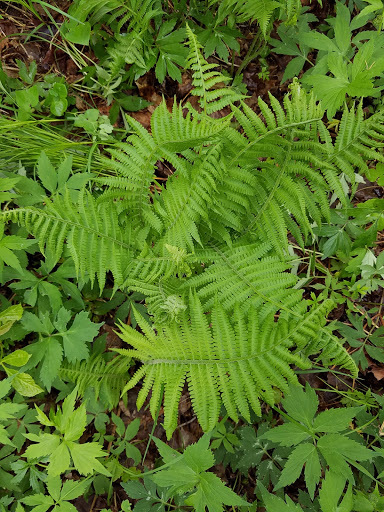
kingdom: Plantae
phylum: Tracheophyta
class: Polypodiopsida
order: Polypodiales
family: Athyriaceae
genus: Deparia
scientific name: Deparia acrostichoides
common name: Silver false spleenwort
